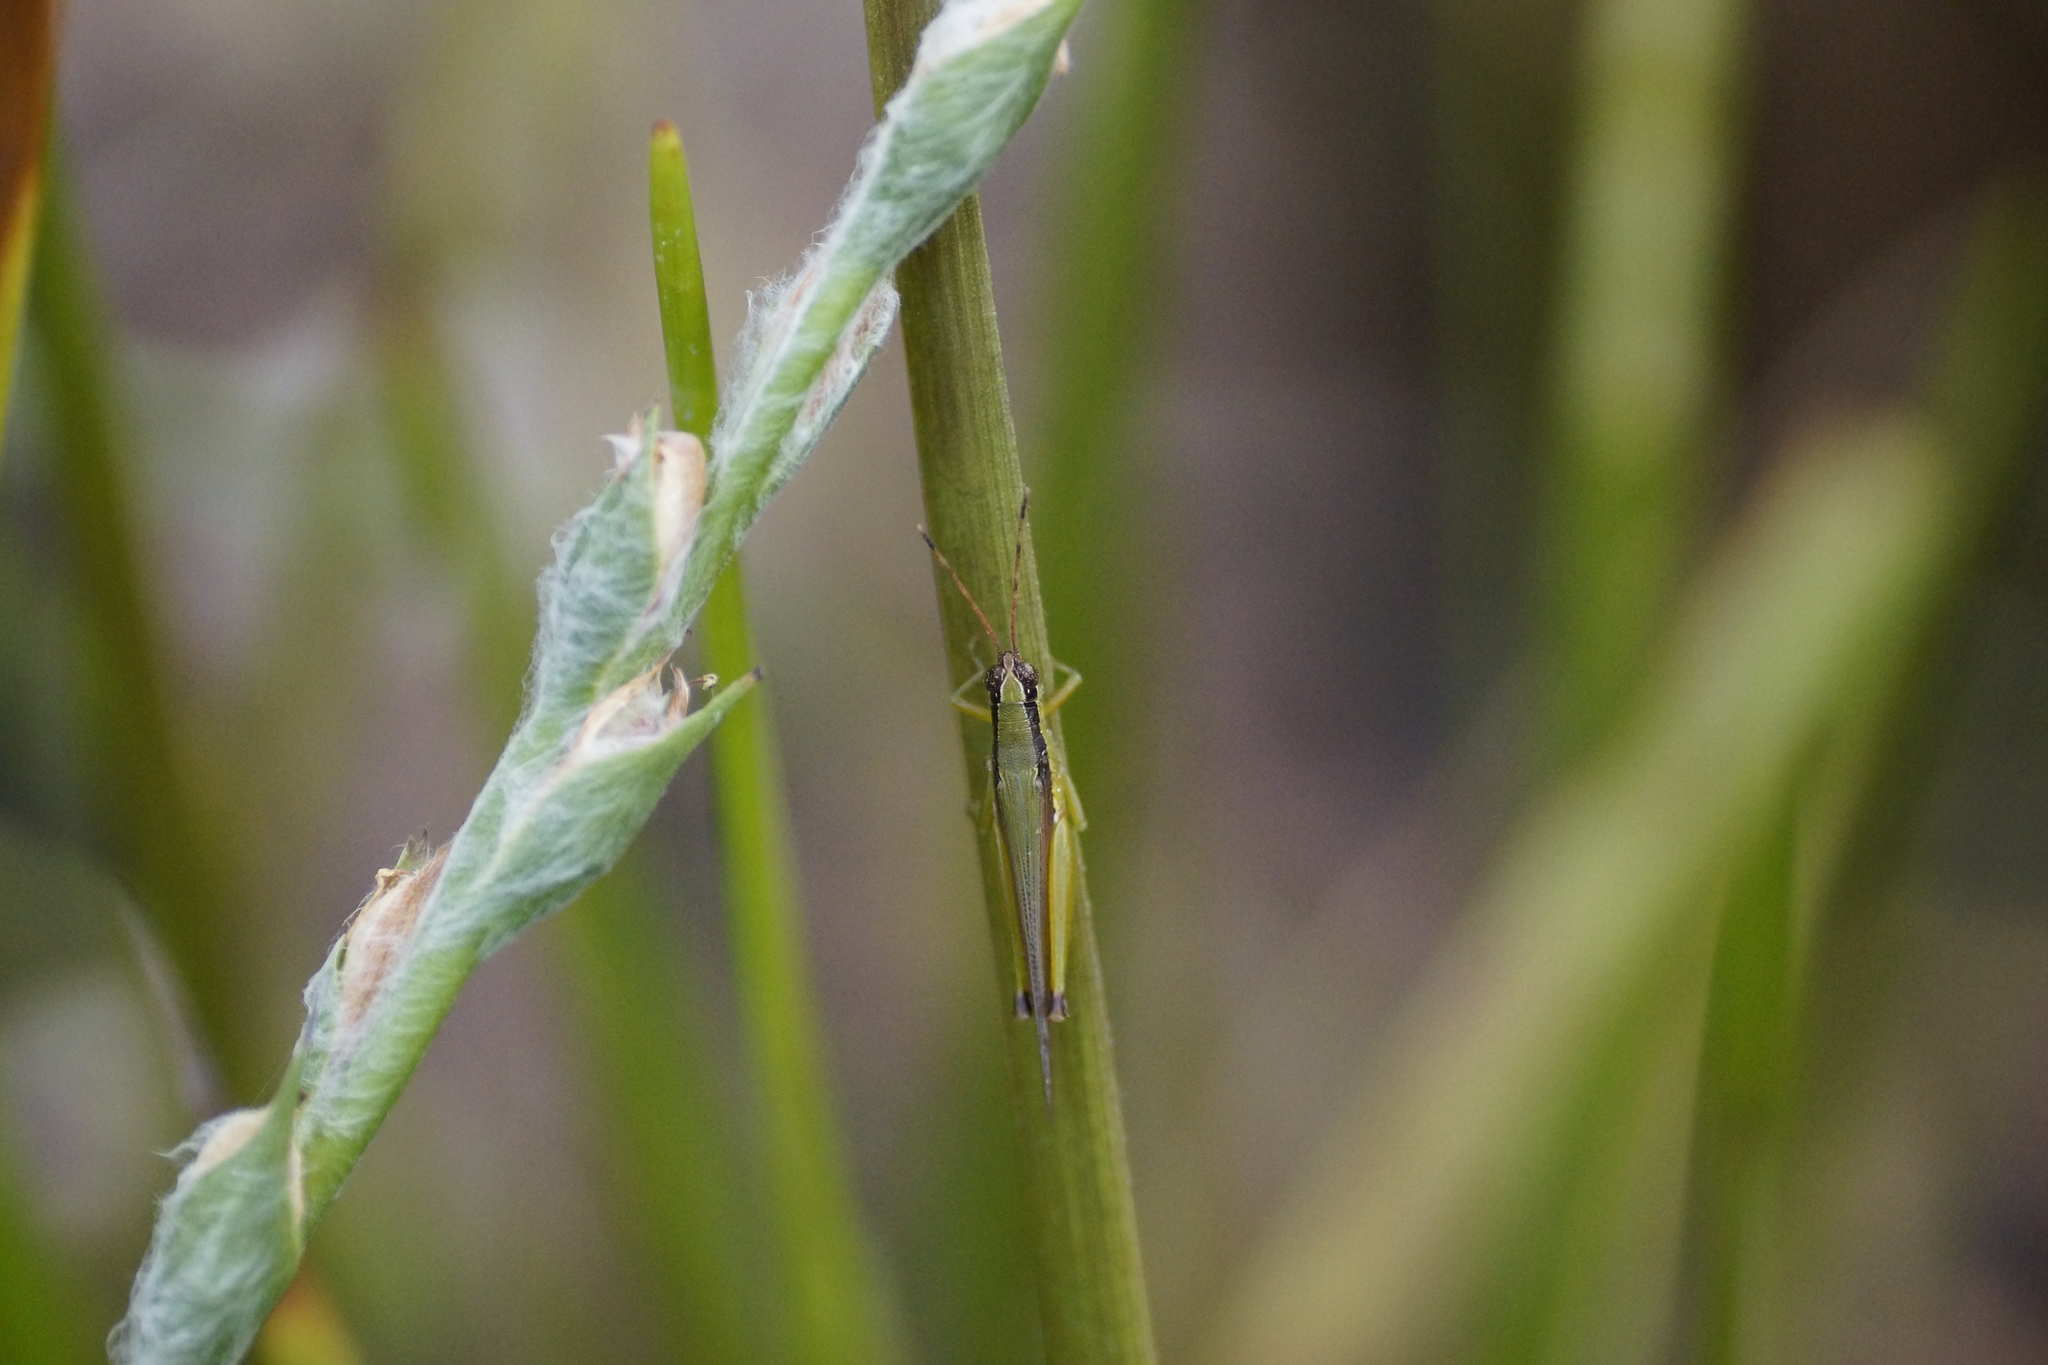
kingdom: Animalia
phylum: Arthropoda
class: Insecta
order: Orthoptera
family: Acrididae
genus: Gesonula
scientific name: Gesonula mundata
